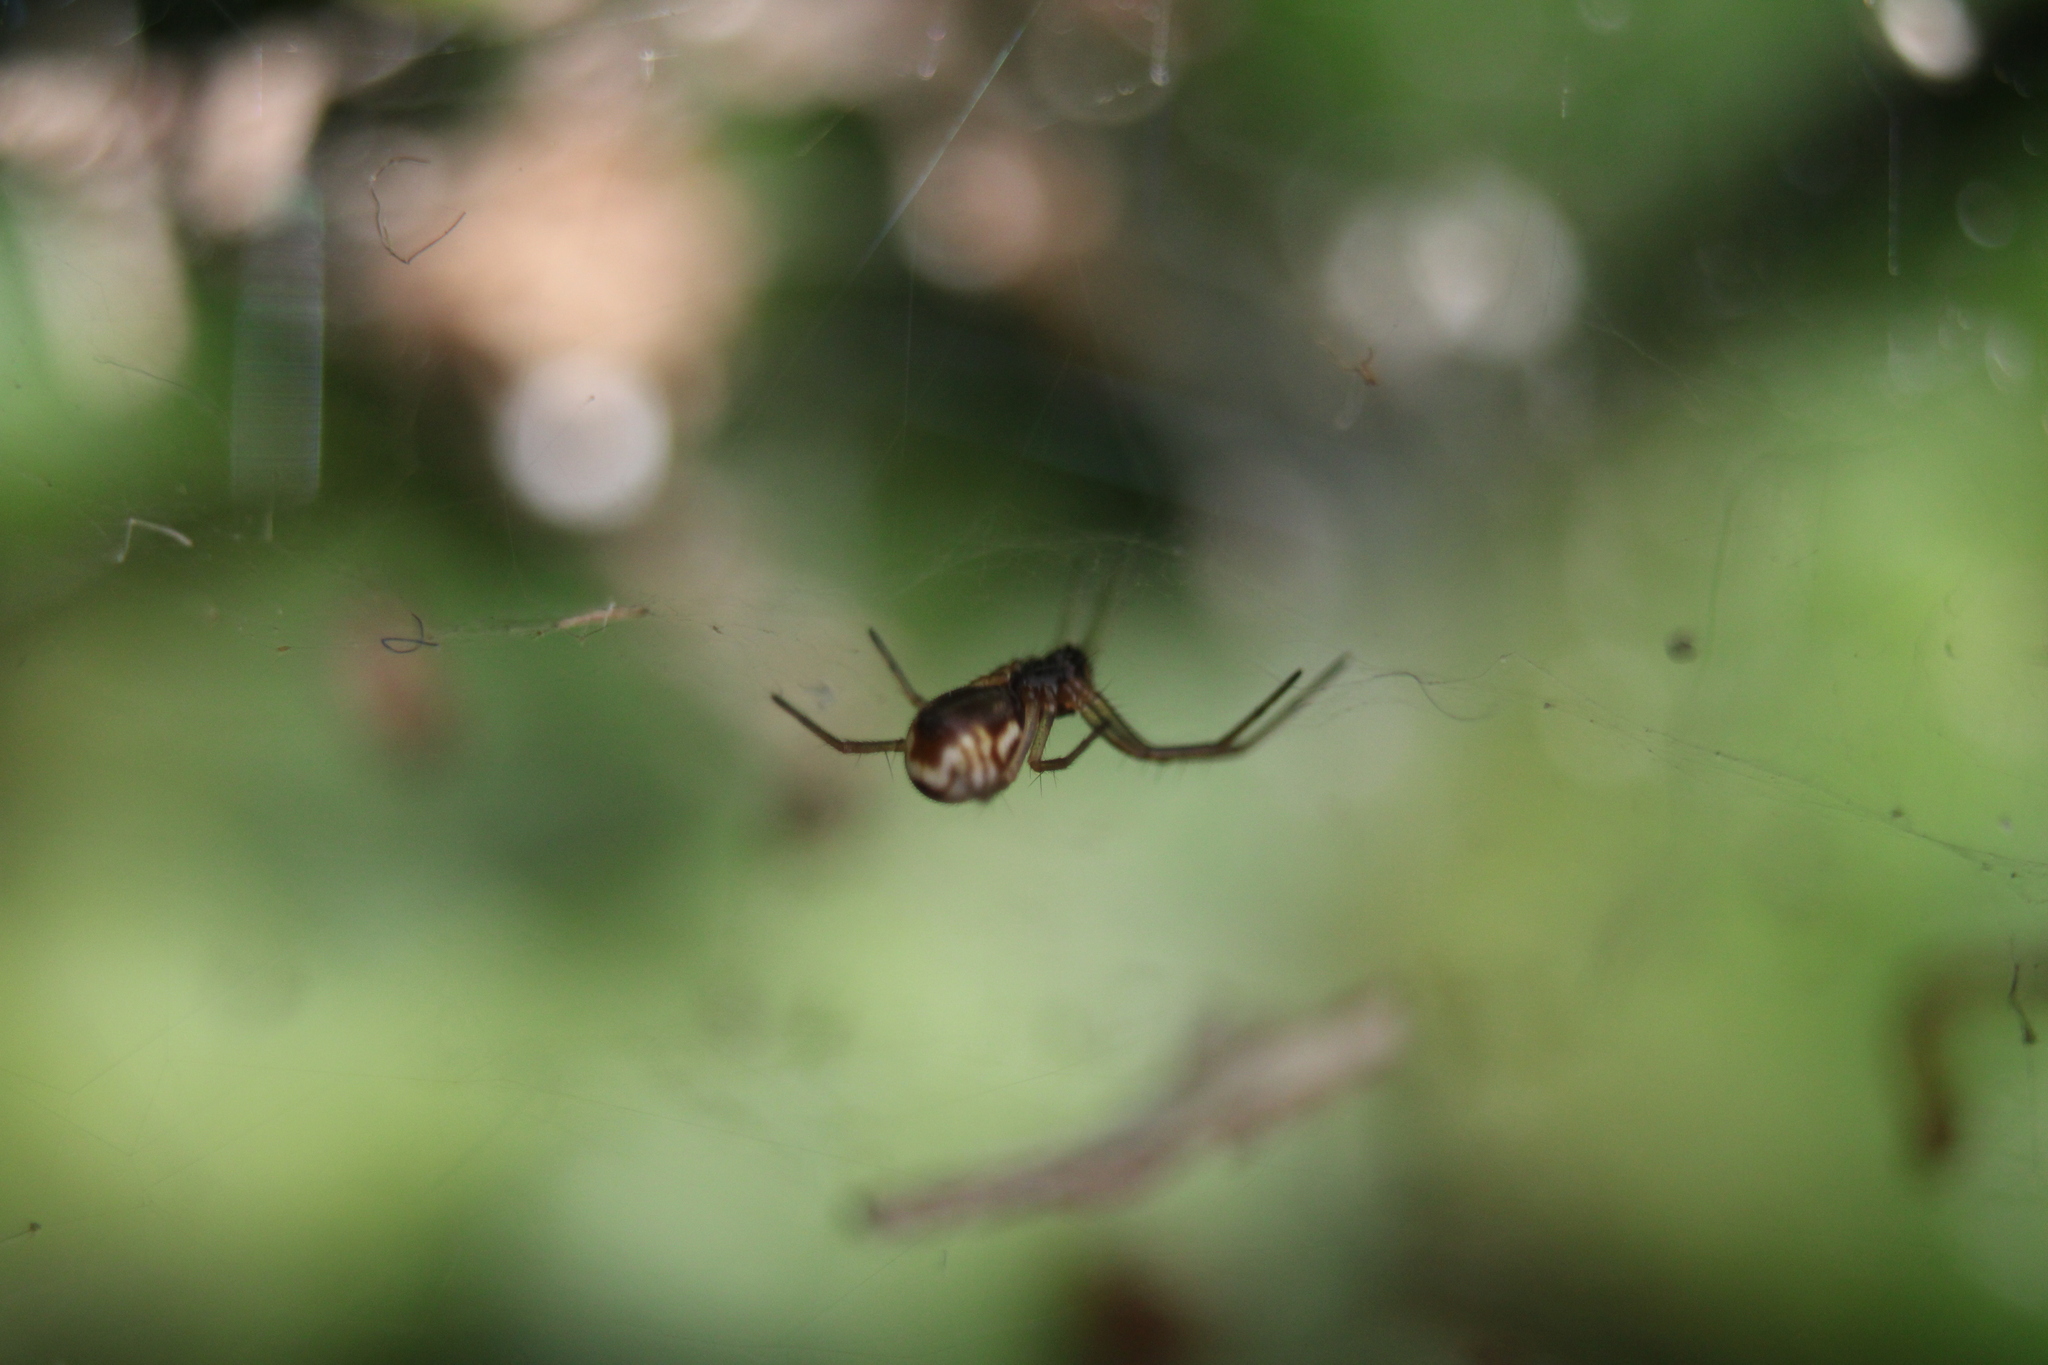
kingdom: Animalia
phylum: Arthropoda
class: Arachnida
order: Araneae
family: Linyphiidae
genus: Frontinella
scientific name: Frontinella pyramitela
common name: Bowl-and-doily spider
